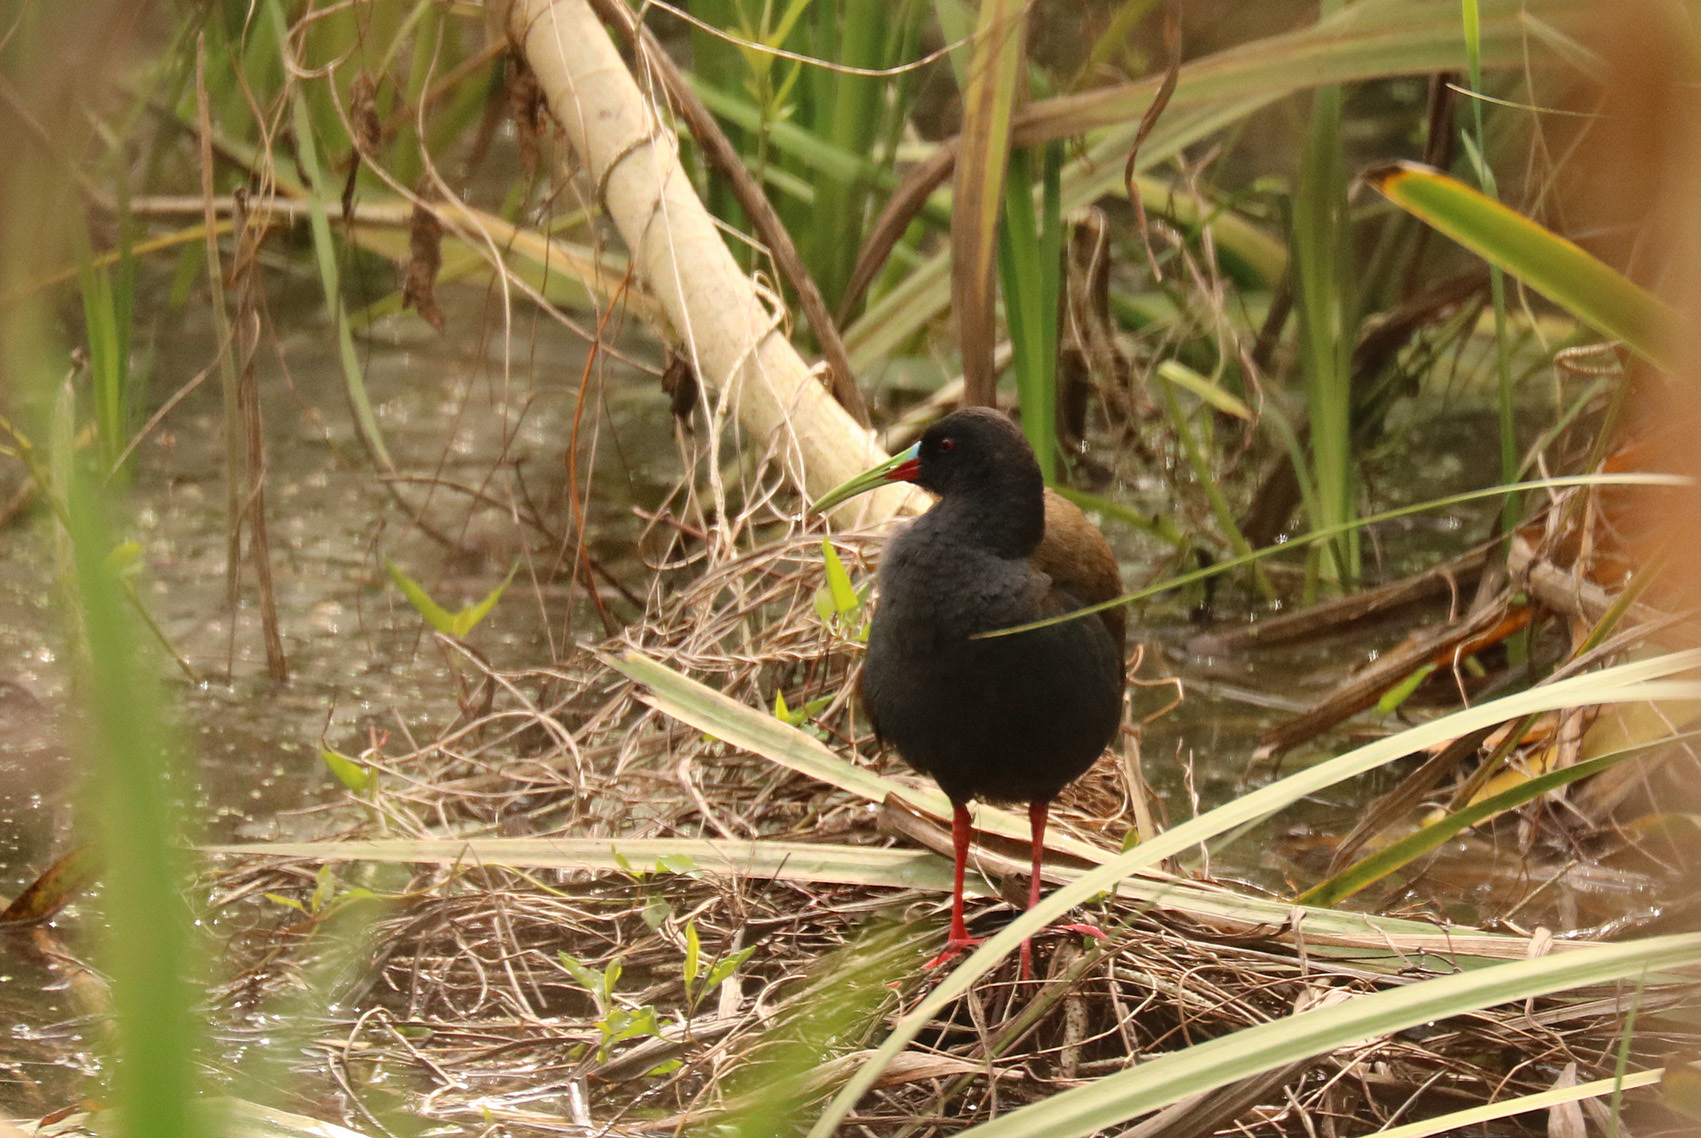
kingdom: Animalia
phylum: Chordata
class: Aves
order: Gruiformes
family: Rallidae
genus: Pardirallus
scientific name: Pardirallus sanguinolentus
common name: Plumbeous rail
